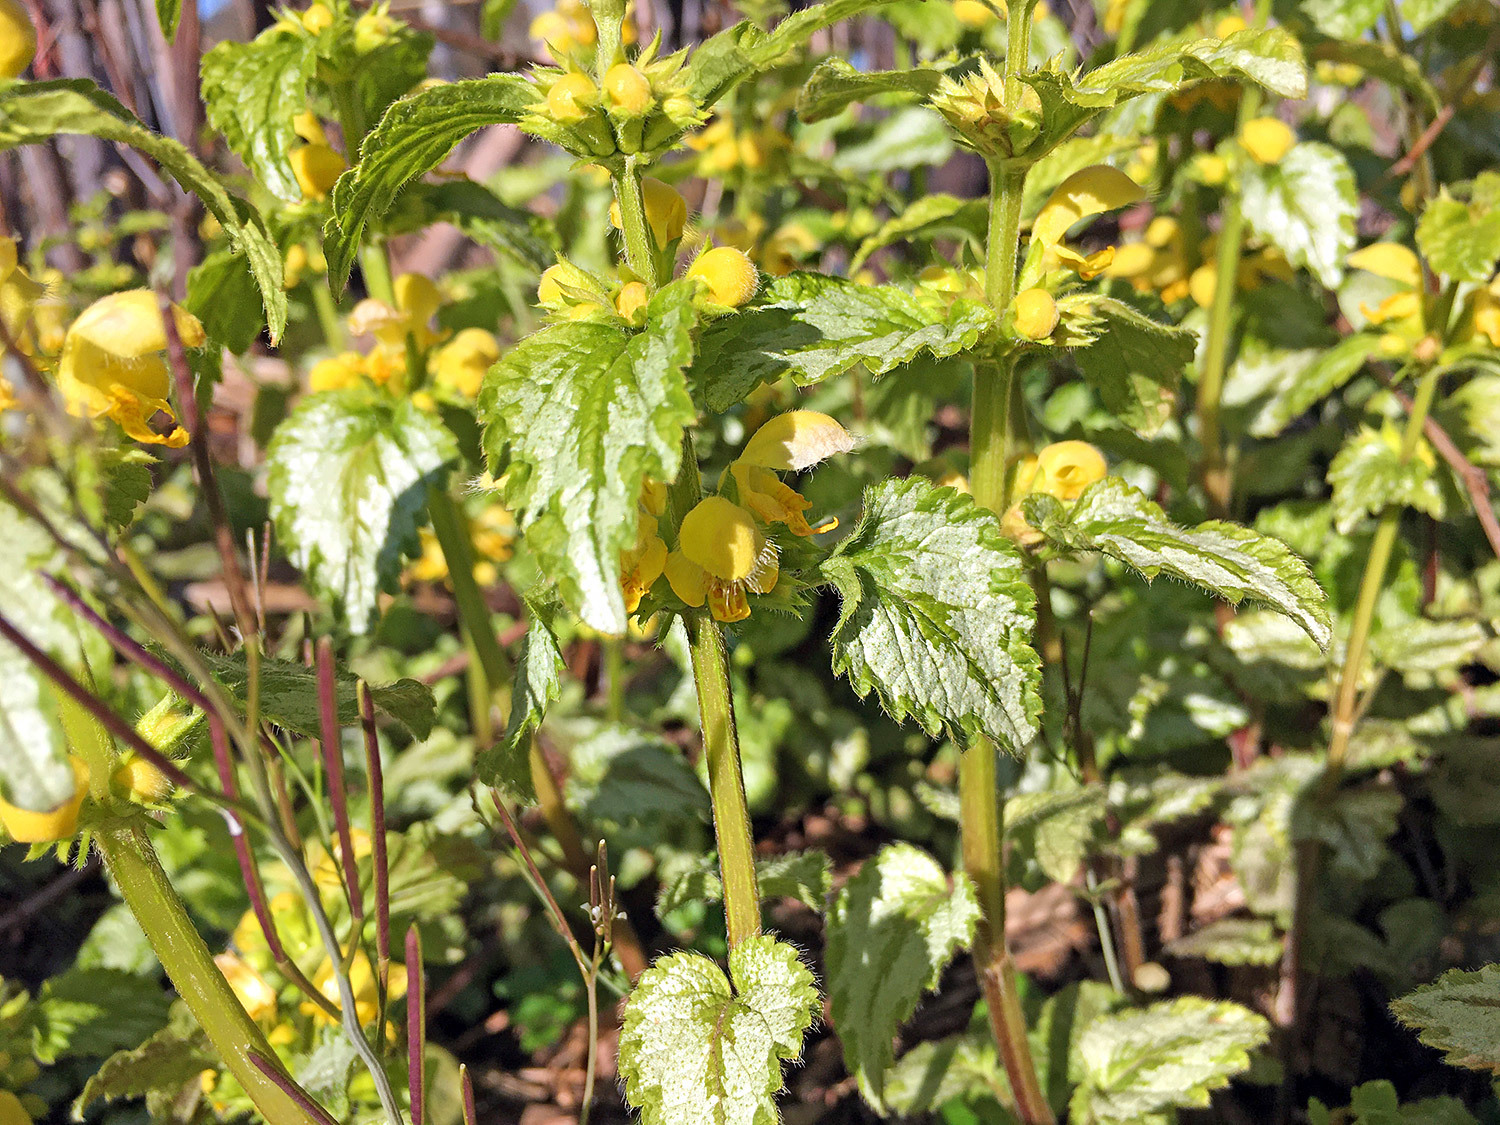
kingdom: Plantae
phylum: Tracheophyta
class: Magnoliopsida
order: Lamiales
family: Lamiaceae
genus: Lamium
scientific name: Lamium galeobdolon
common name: Yellow archangel
